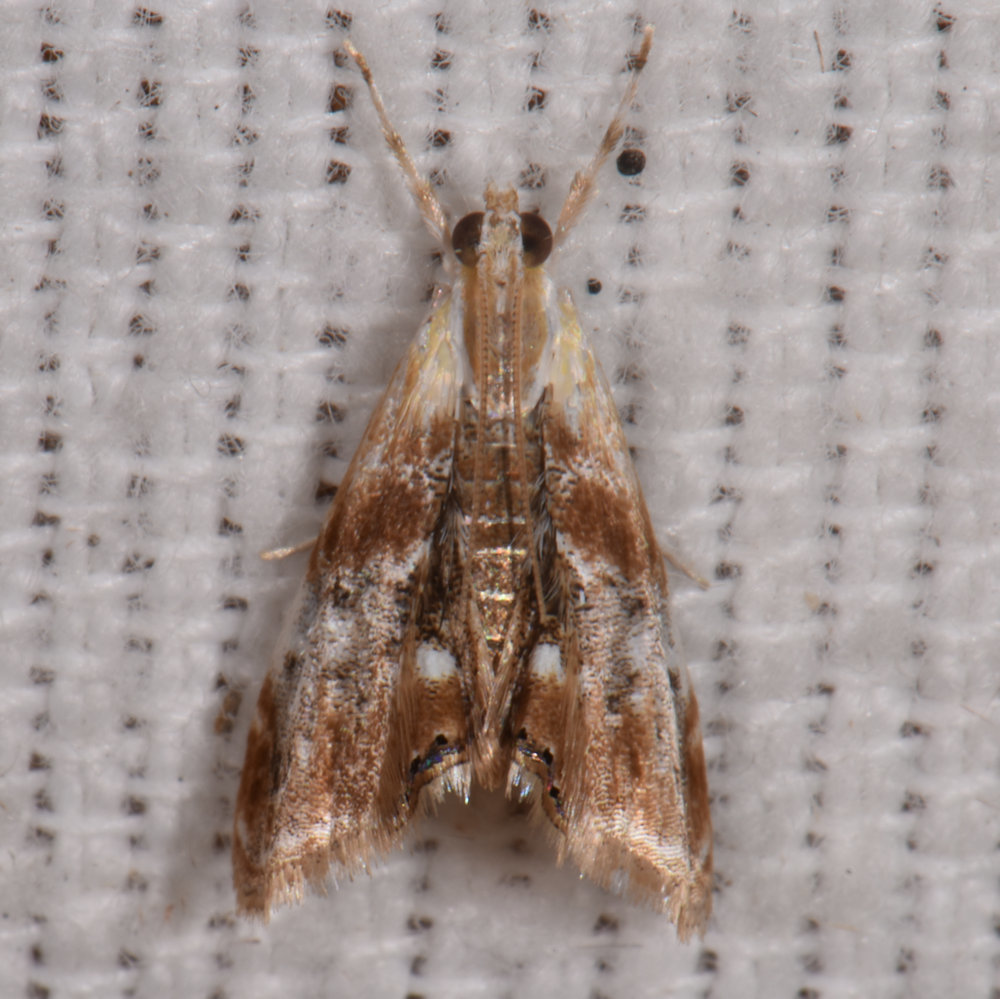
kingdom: Animalia
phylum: Arthropoda
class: Insecta
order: Lepidoptera
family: Crambidae
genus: Dicymolomia
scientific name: Dicymolomia julianalis
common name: Julia's dicymolomia moth
